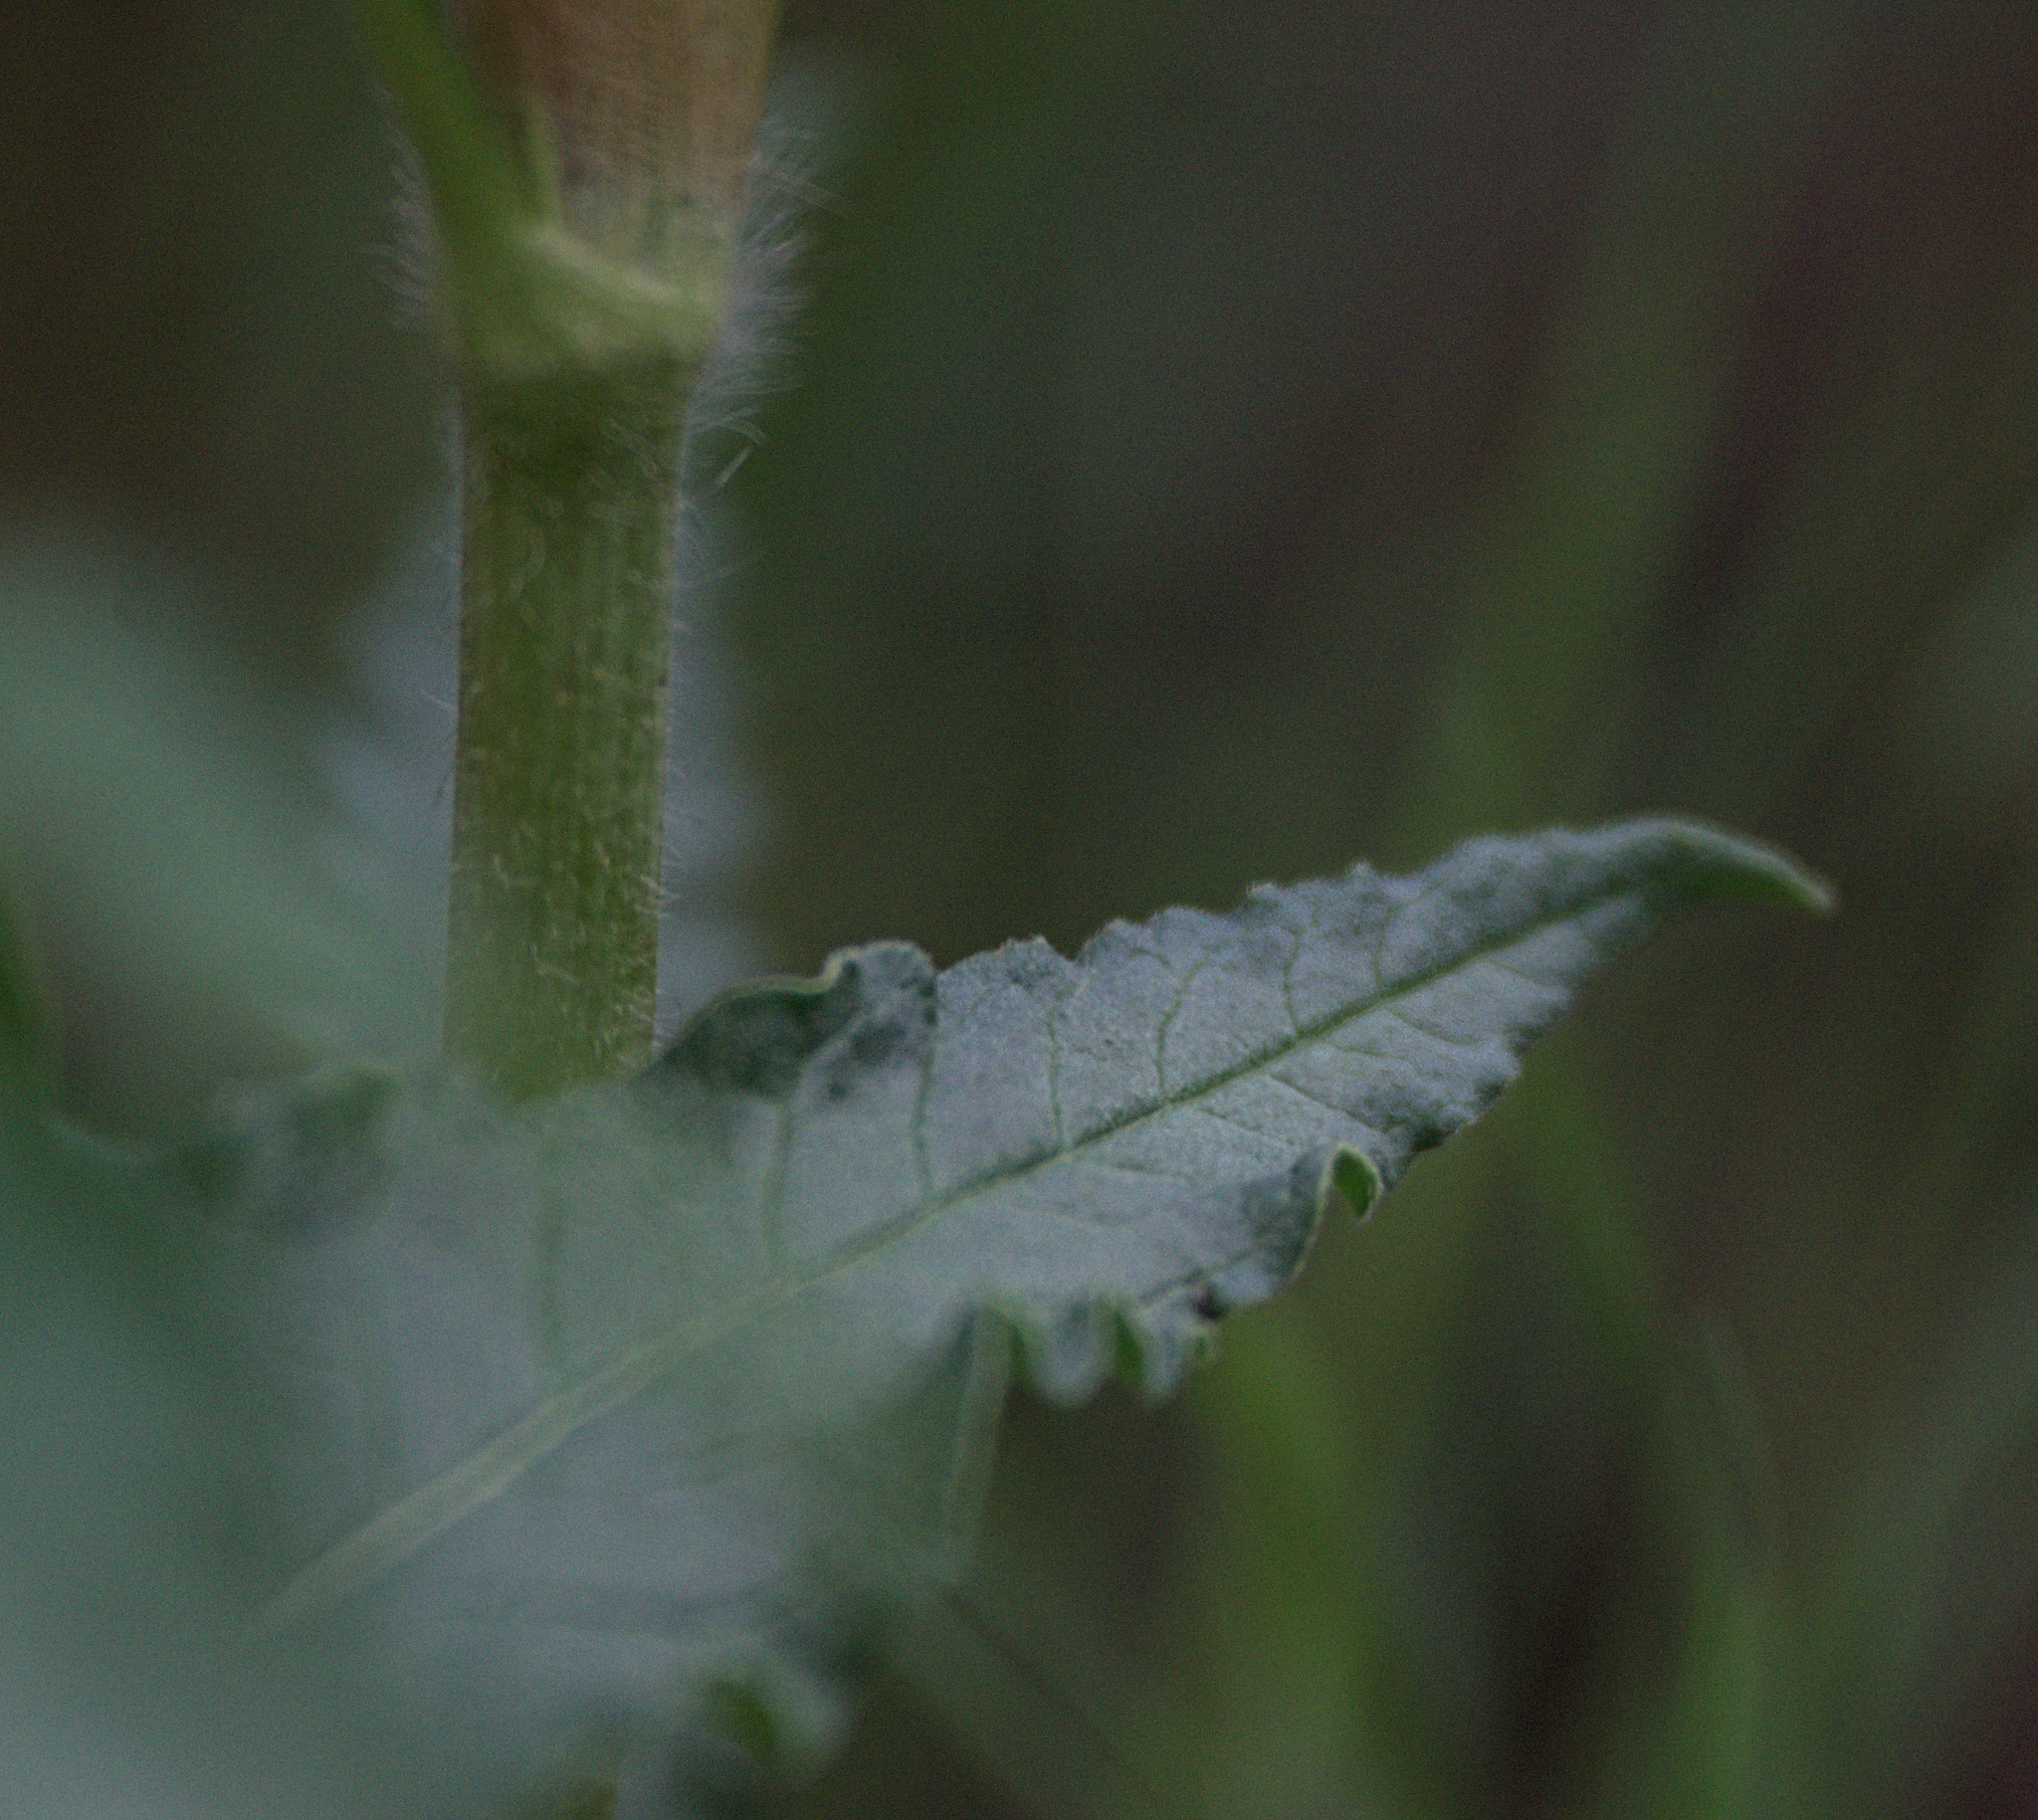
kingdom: Plantae
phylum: Tracheophyta
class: Magnoliopsida
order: Caryophyllales
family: Polygonaceae
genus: Koenigia
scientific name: Koenigia alpina
